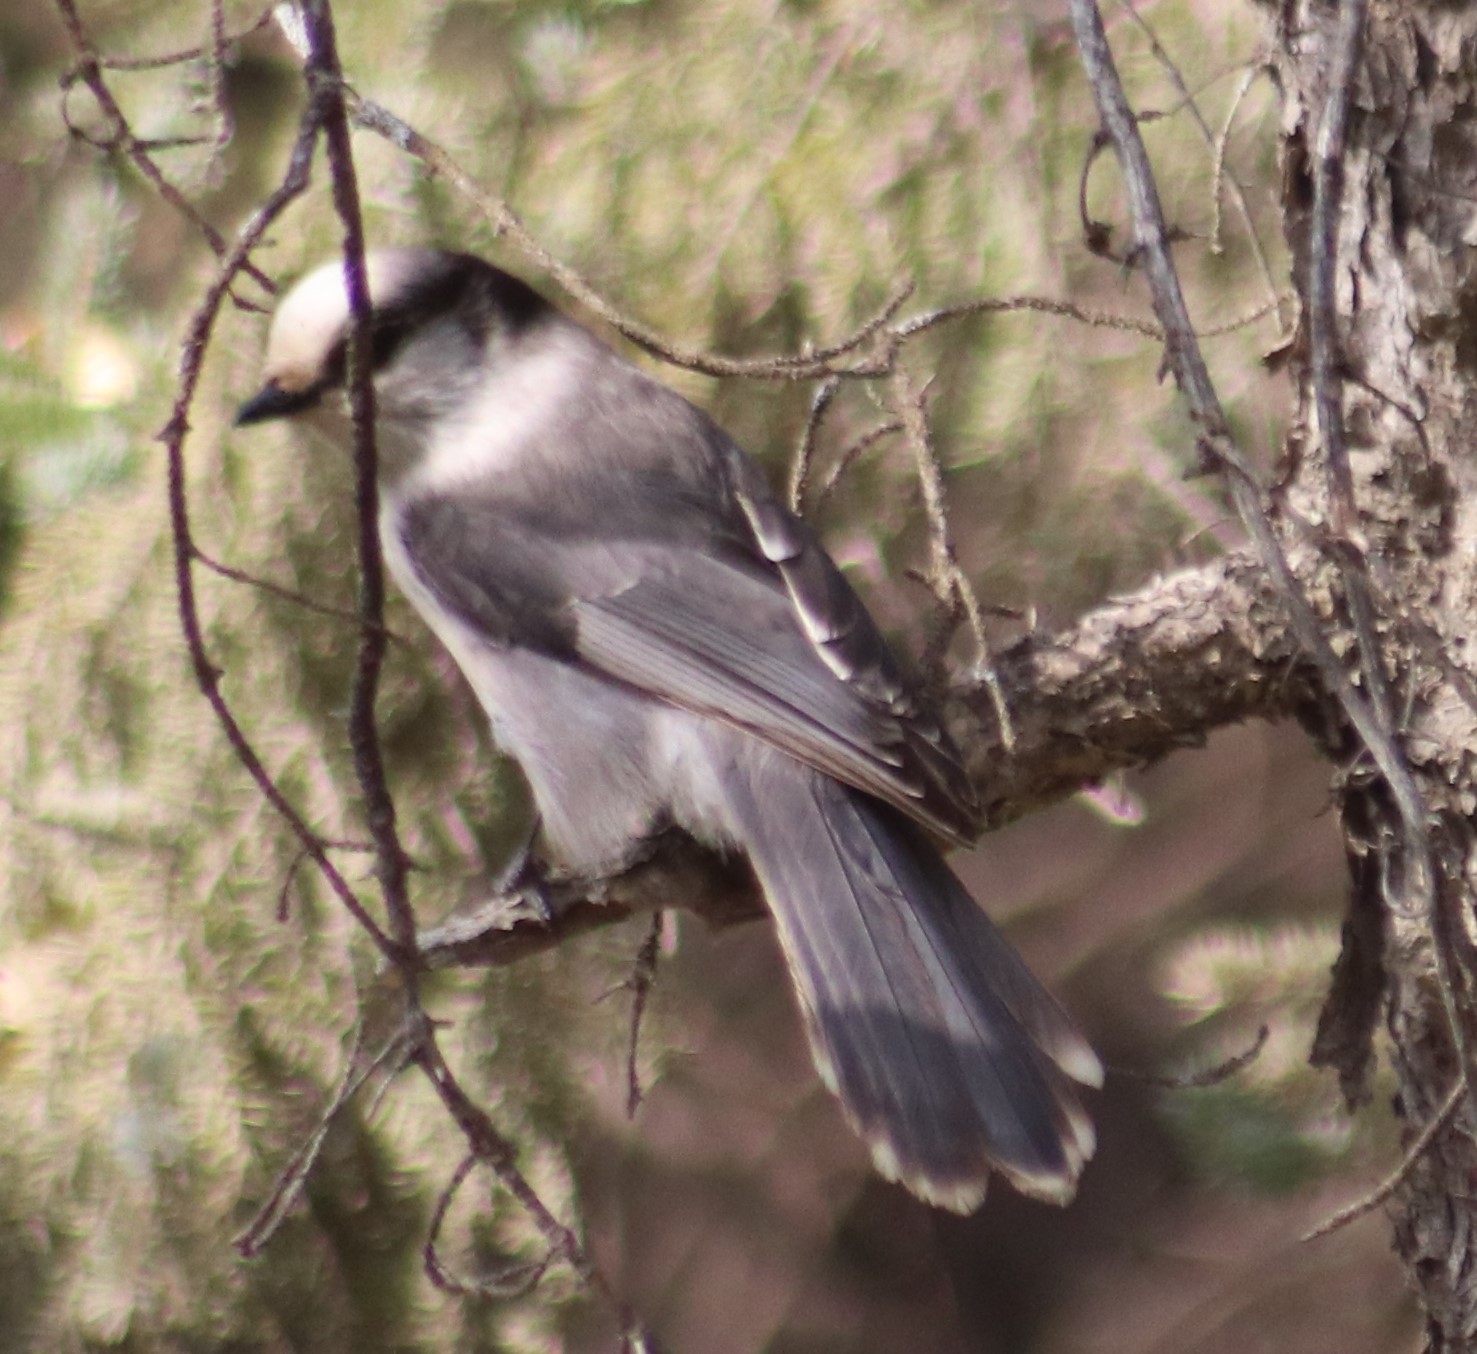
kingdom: Animalia
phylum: Chordata
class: Aves
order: Passeriformes
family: Corvidae
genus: Perisoreus
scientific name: Perisoreus canadensis
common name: Gray jay
